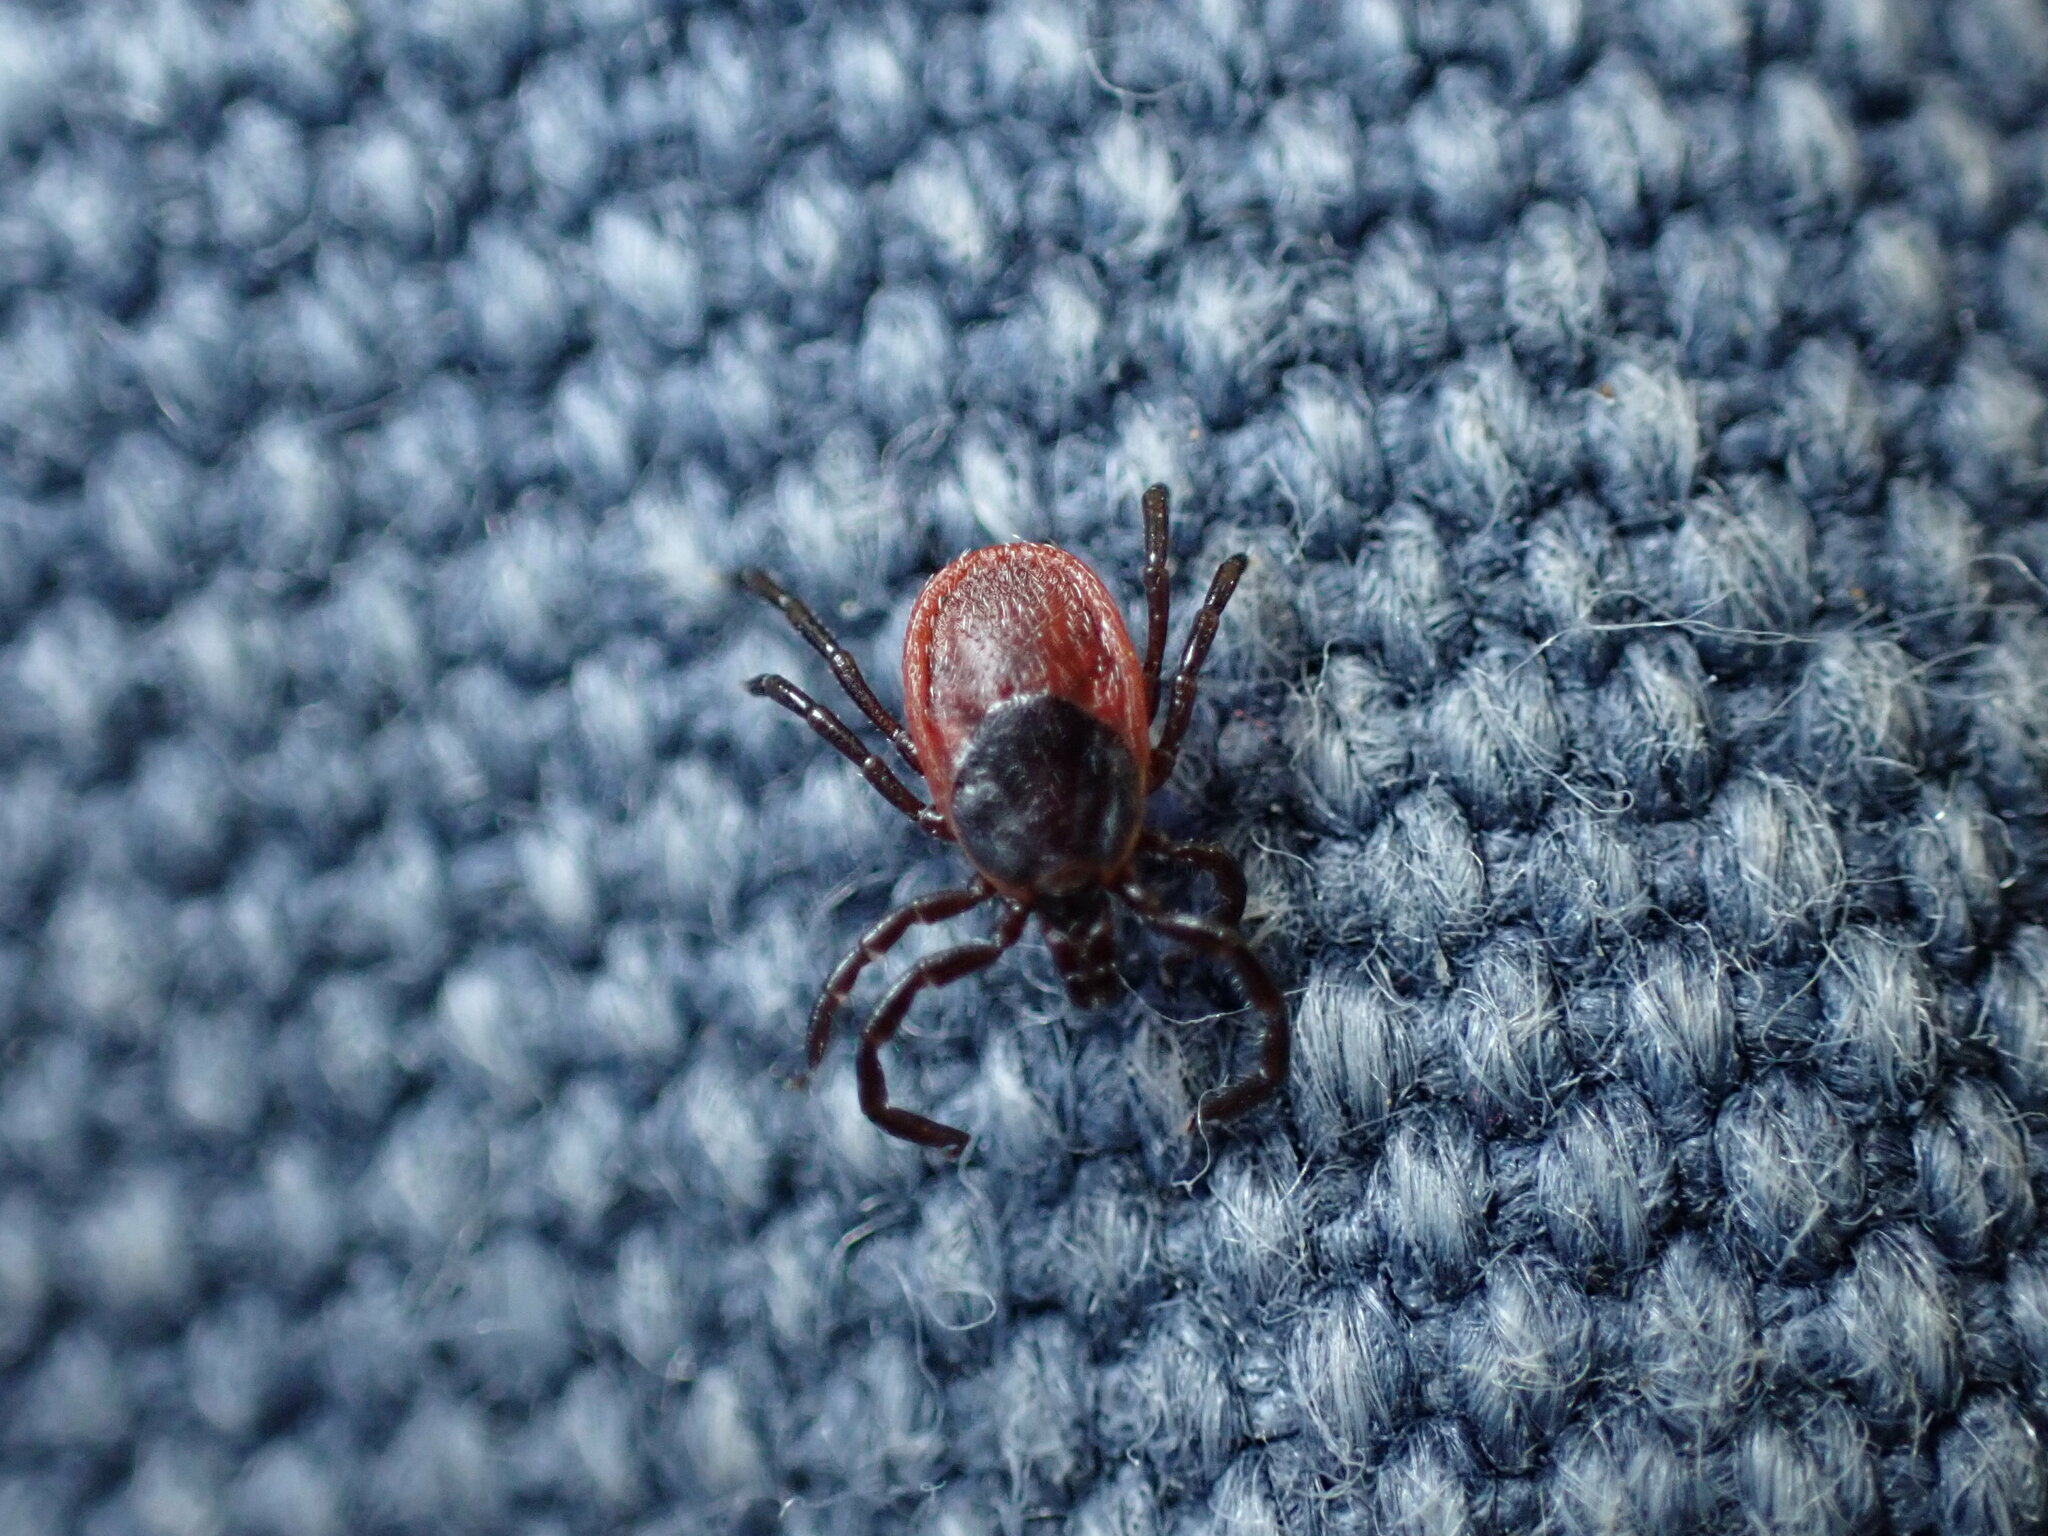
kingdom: Animalia
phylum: Arthropoda
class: Arachnida
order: Ixodida
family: Ixodidae
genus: Ixodes
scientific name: Ixodes pacificus
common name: California black-legged tick
